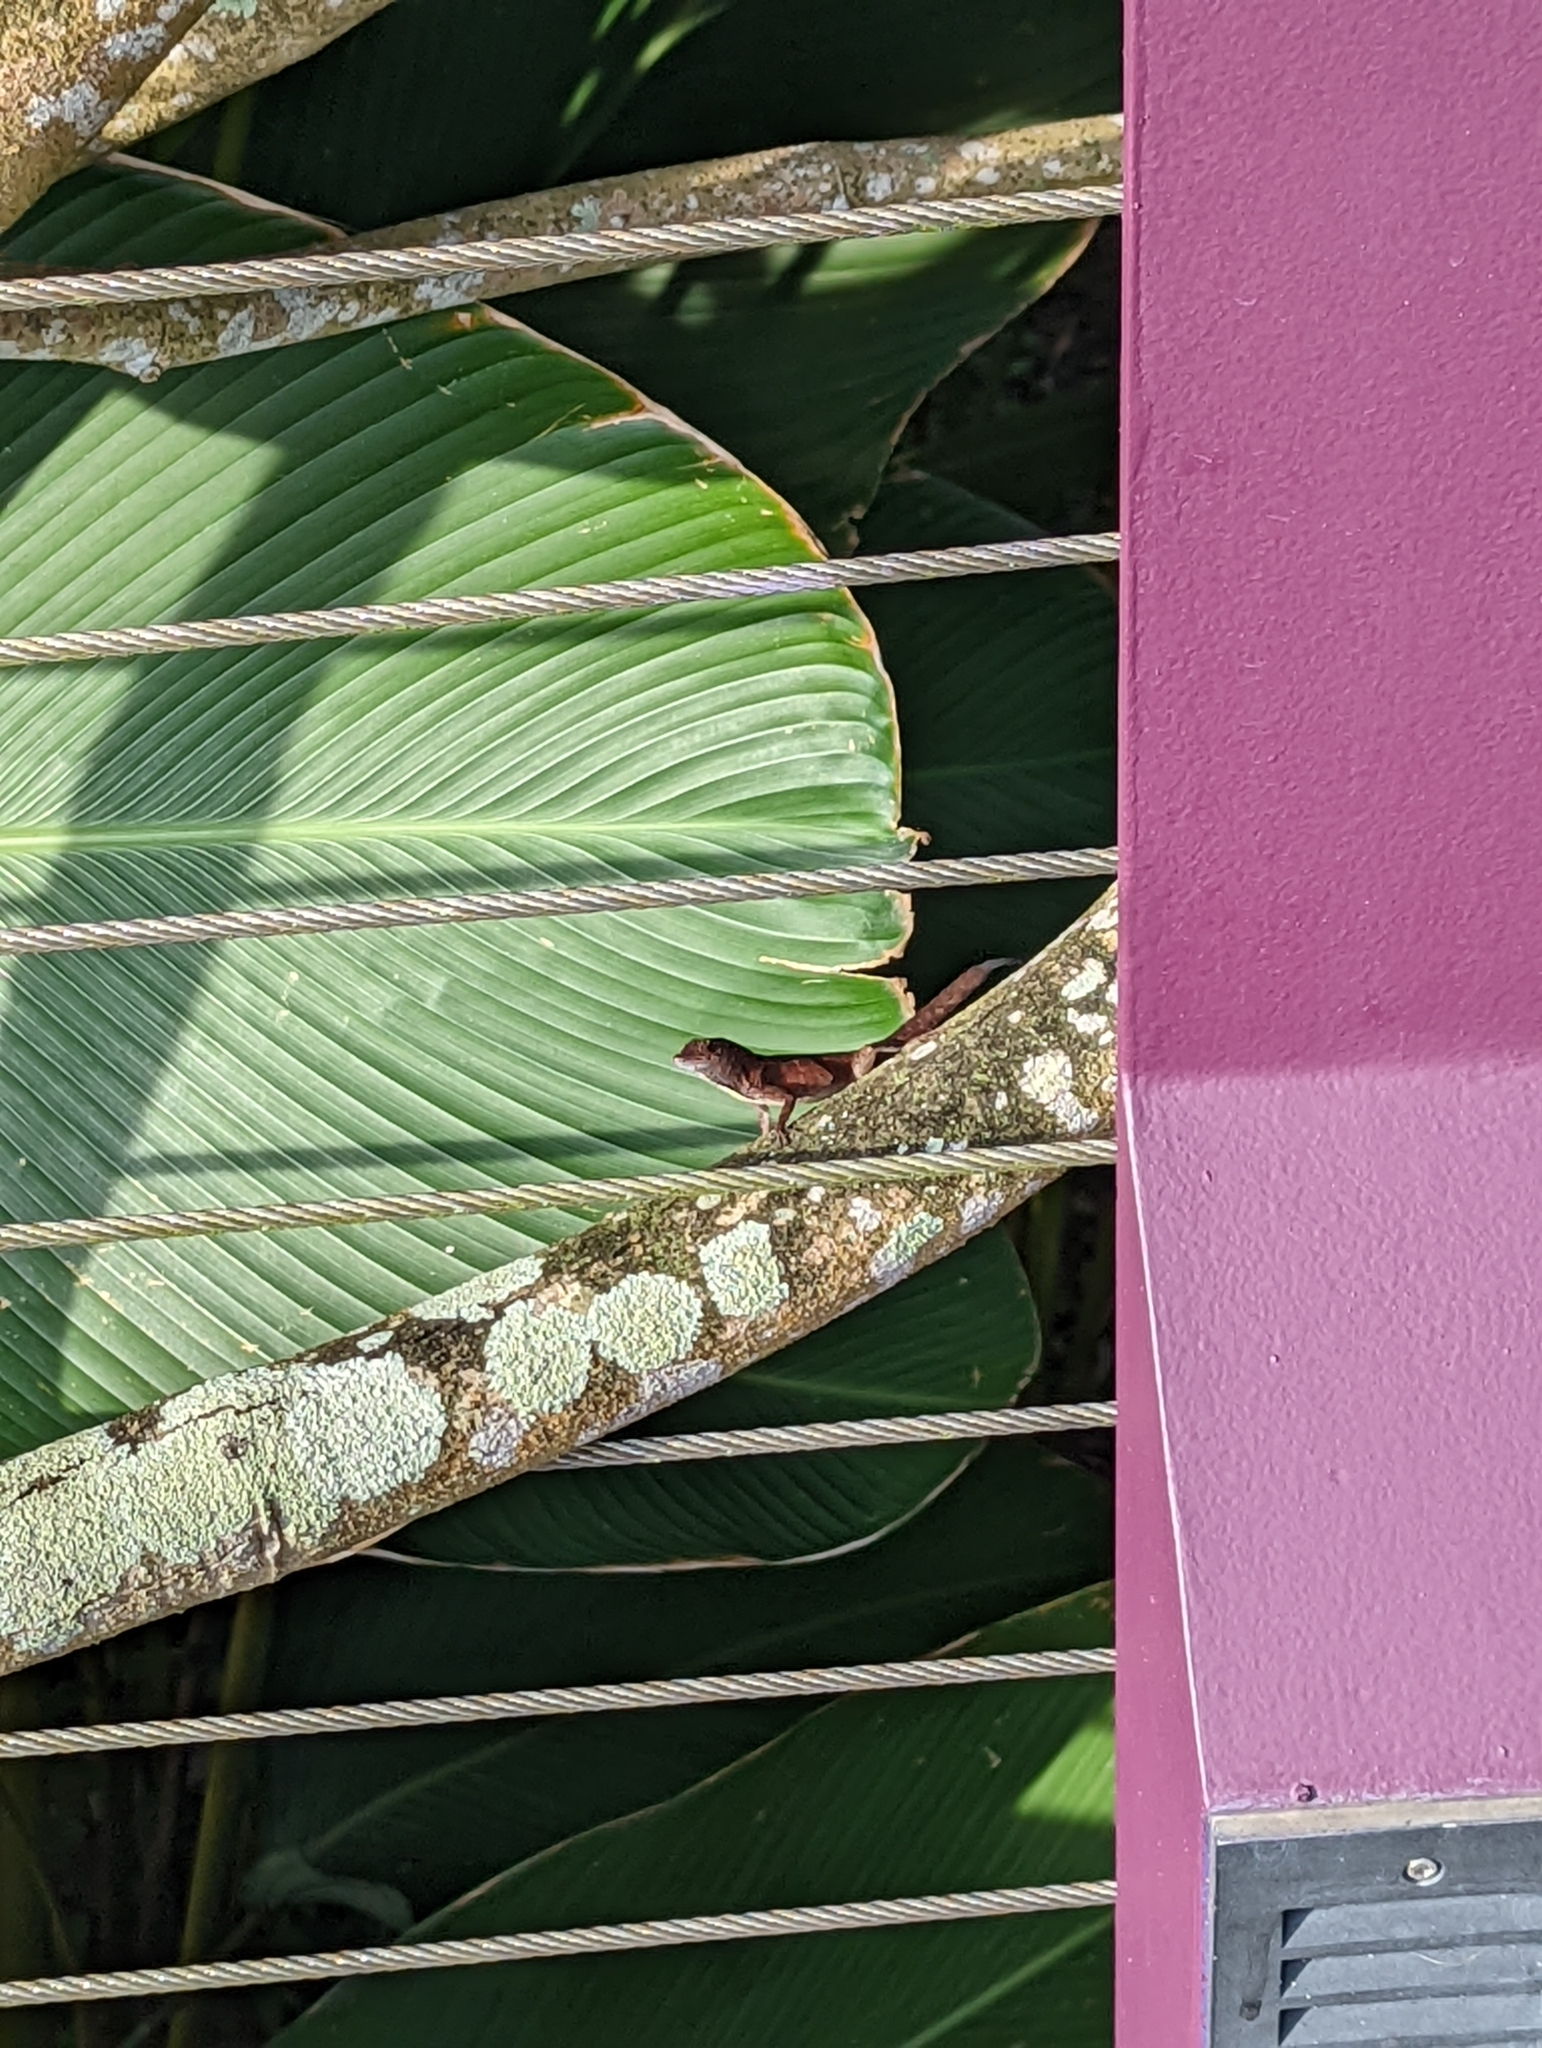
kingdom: Animalia
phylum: Chordata
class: Squamata
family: Dactyloidae
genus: Anolis
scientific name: Anolis sagrei
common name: Brown anole
